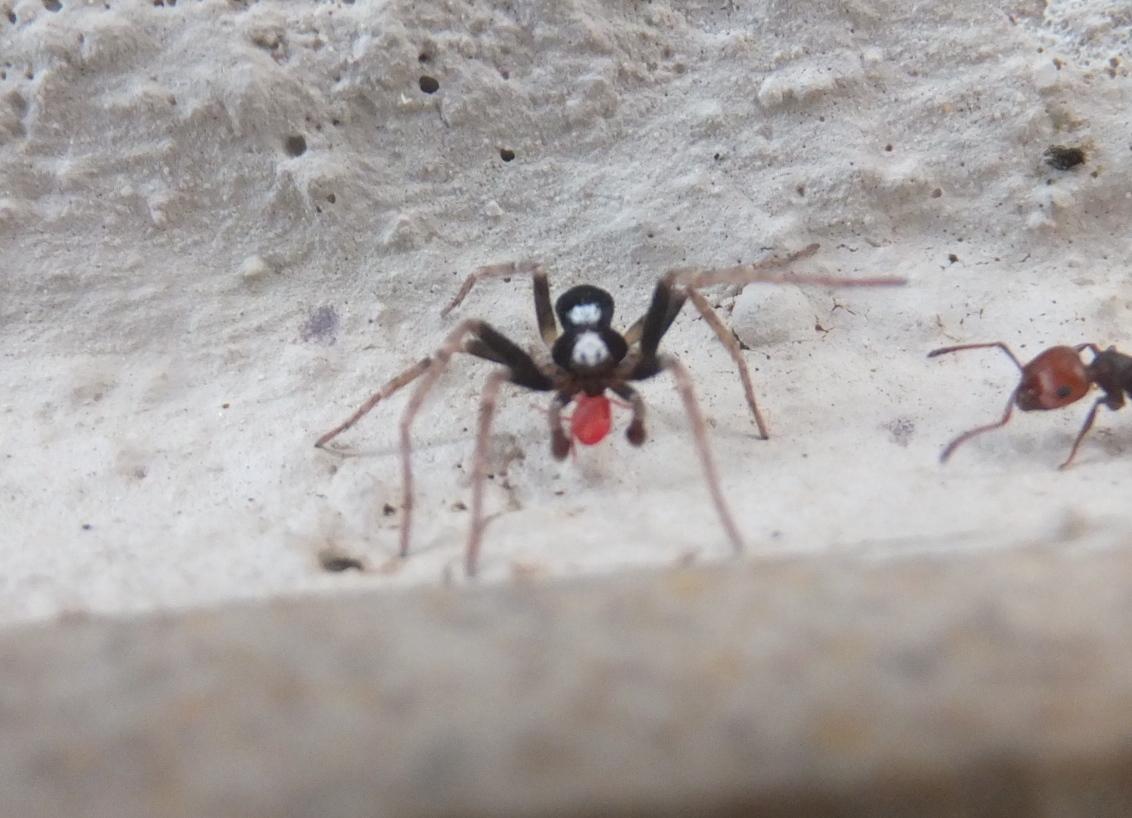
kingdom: Animalia
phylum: Arthropoda
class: Arachnida
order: Araneae
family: Philodromidae
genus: Pulchellodromus
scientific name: Pulchellodromus bistigma
